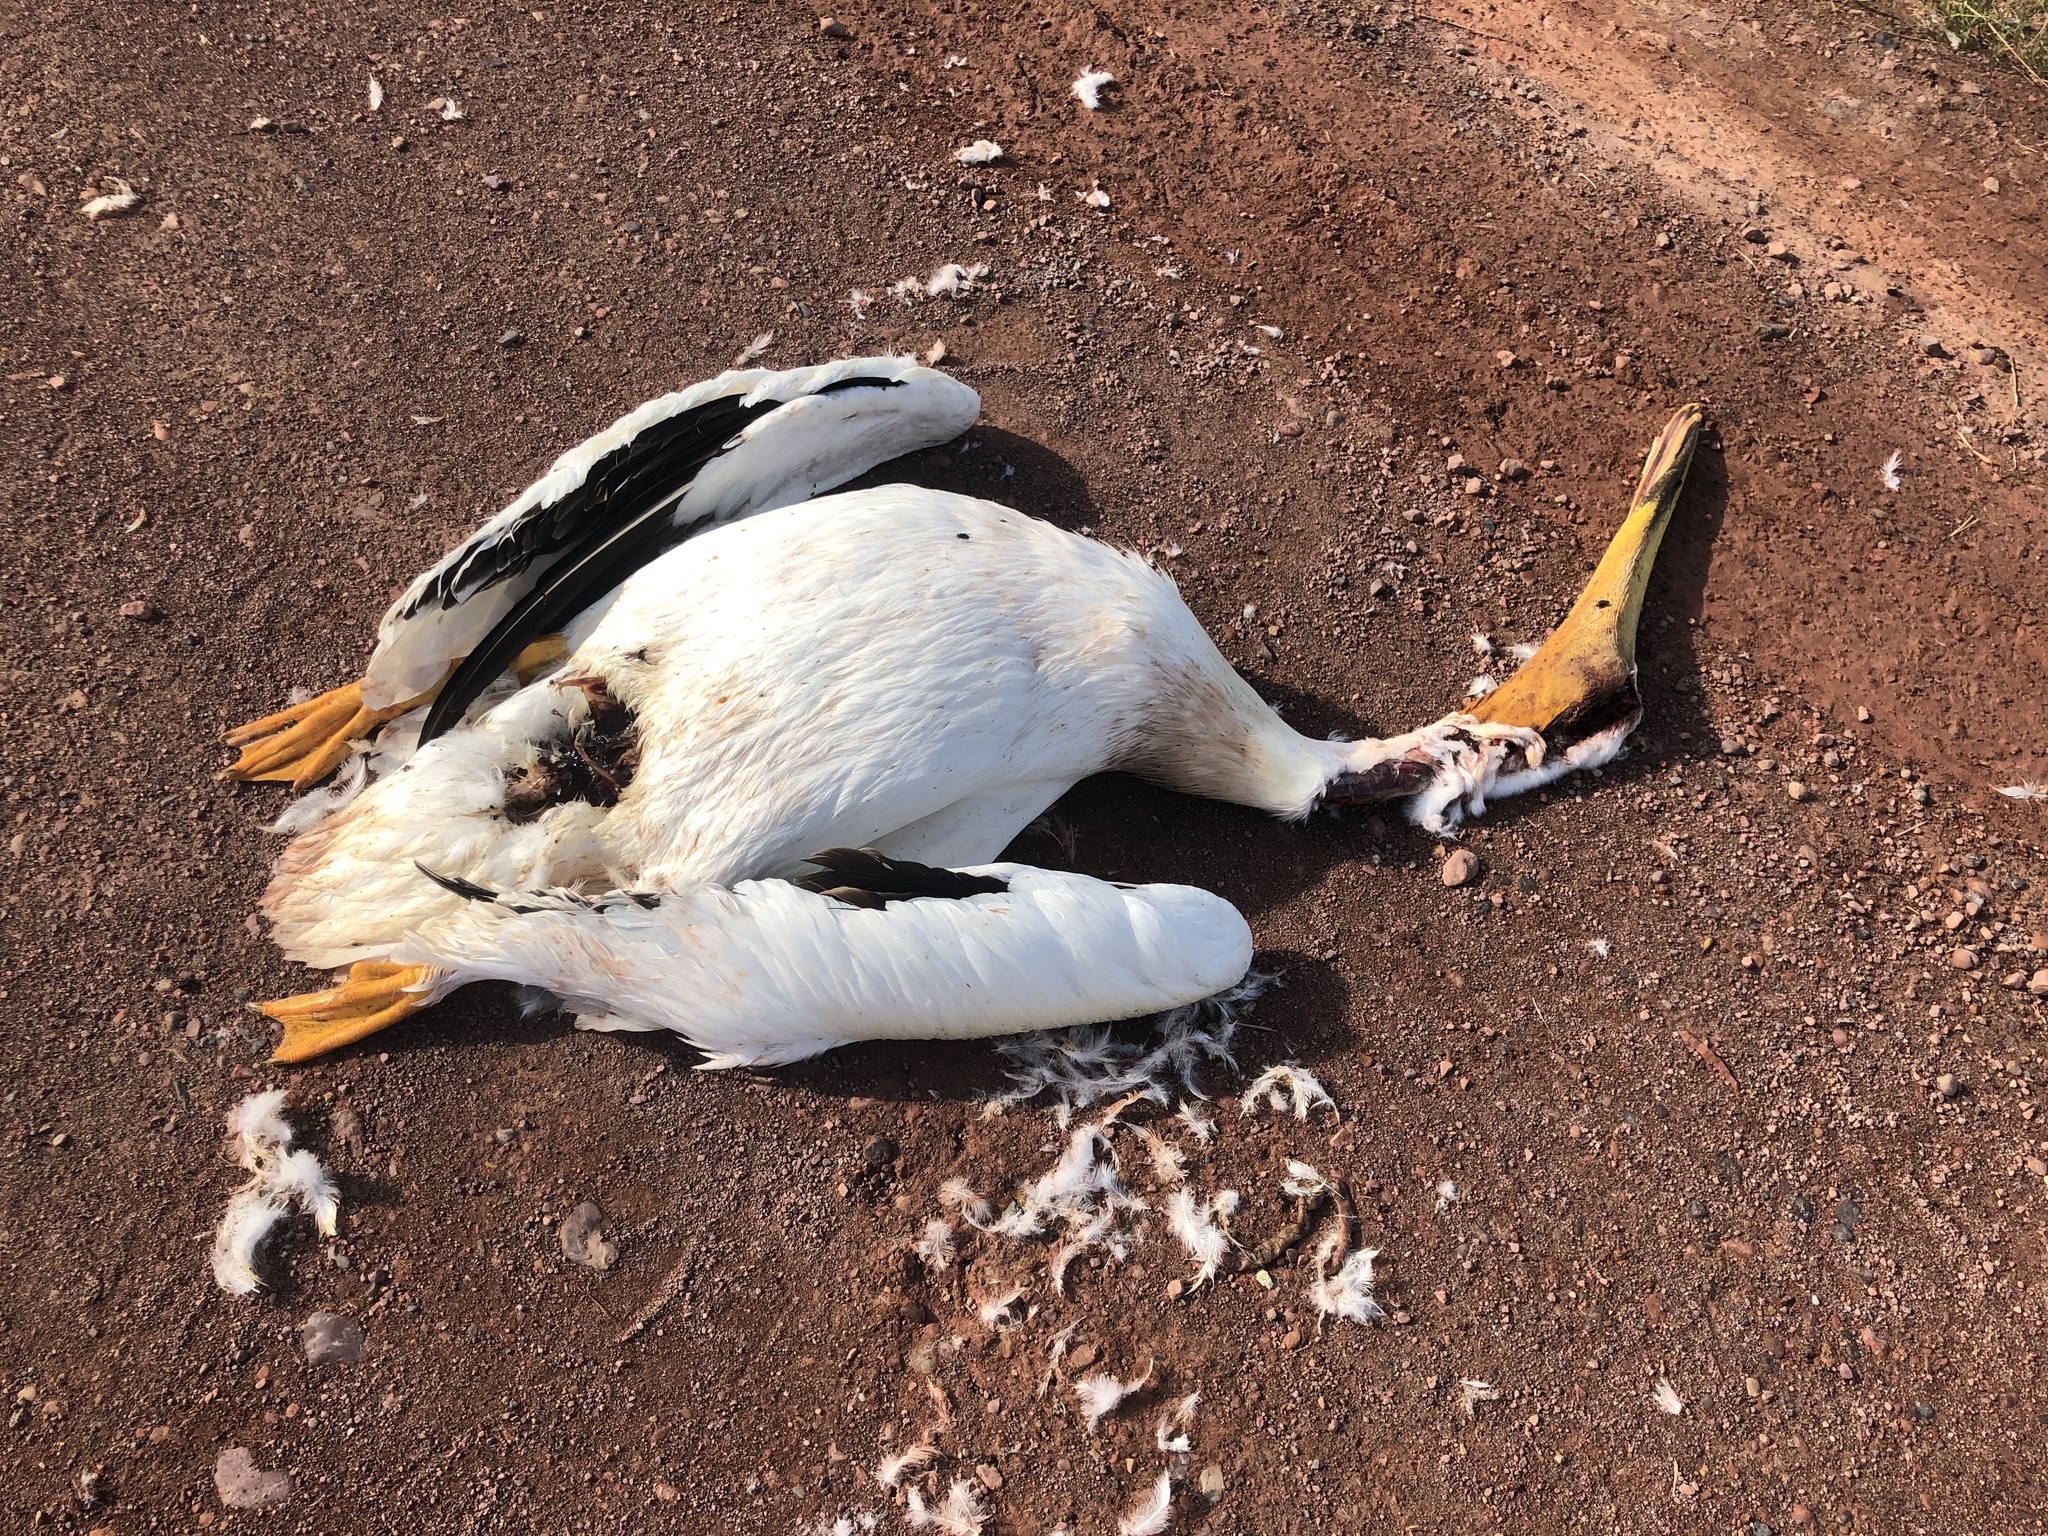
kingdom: Animalia
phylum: Chordata
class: Aves
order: Pelecaniformes
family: Pelecanidae
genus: Pelecanus
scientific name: Pelecanus erythrorhynchos
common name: American white pelican
